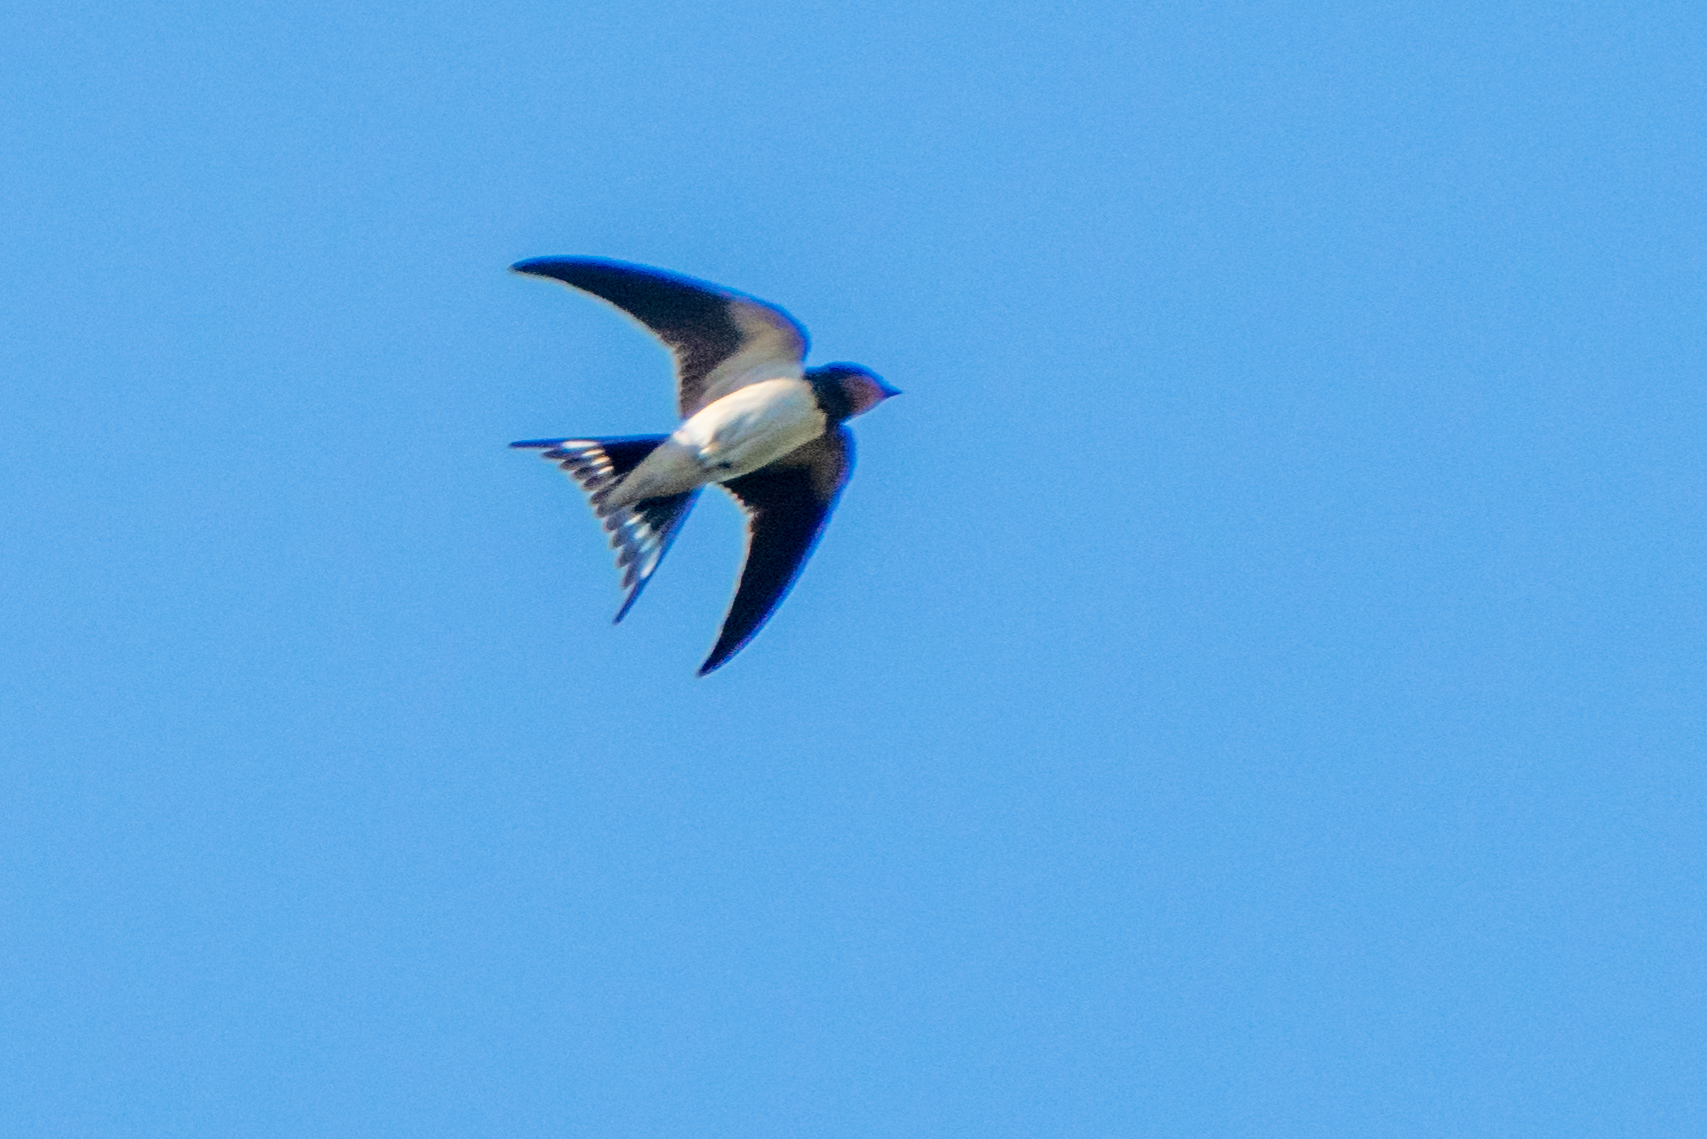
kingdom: Animalia
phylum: Chordata
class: Aves
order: Passeriformes
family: Hirundinidae
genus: Hirundo
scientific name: Hirundo rustica
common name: Barn swallow
